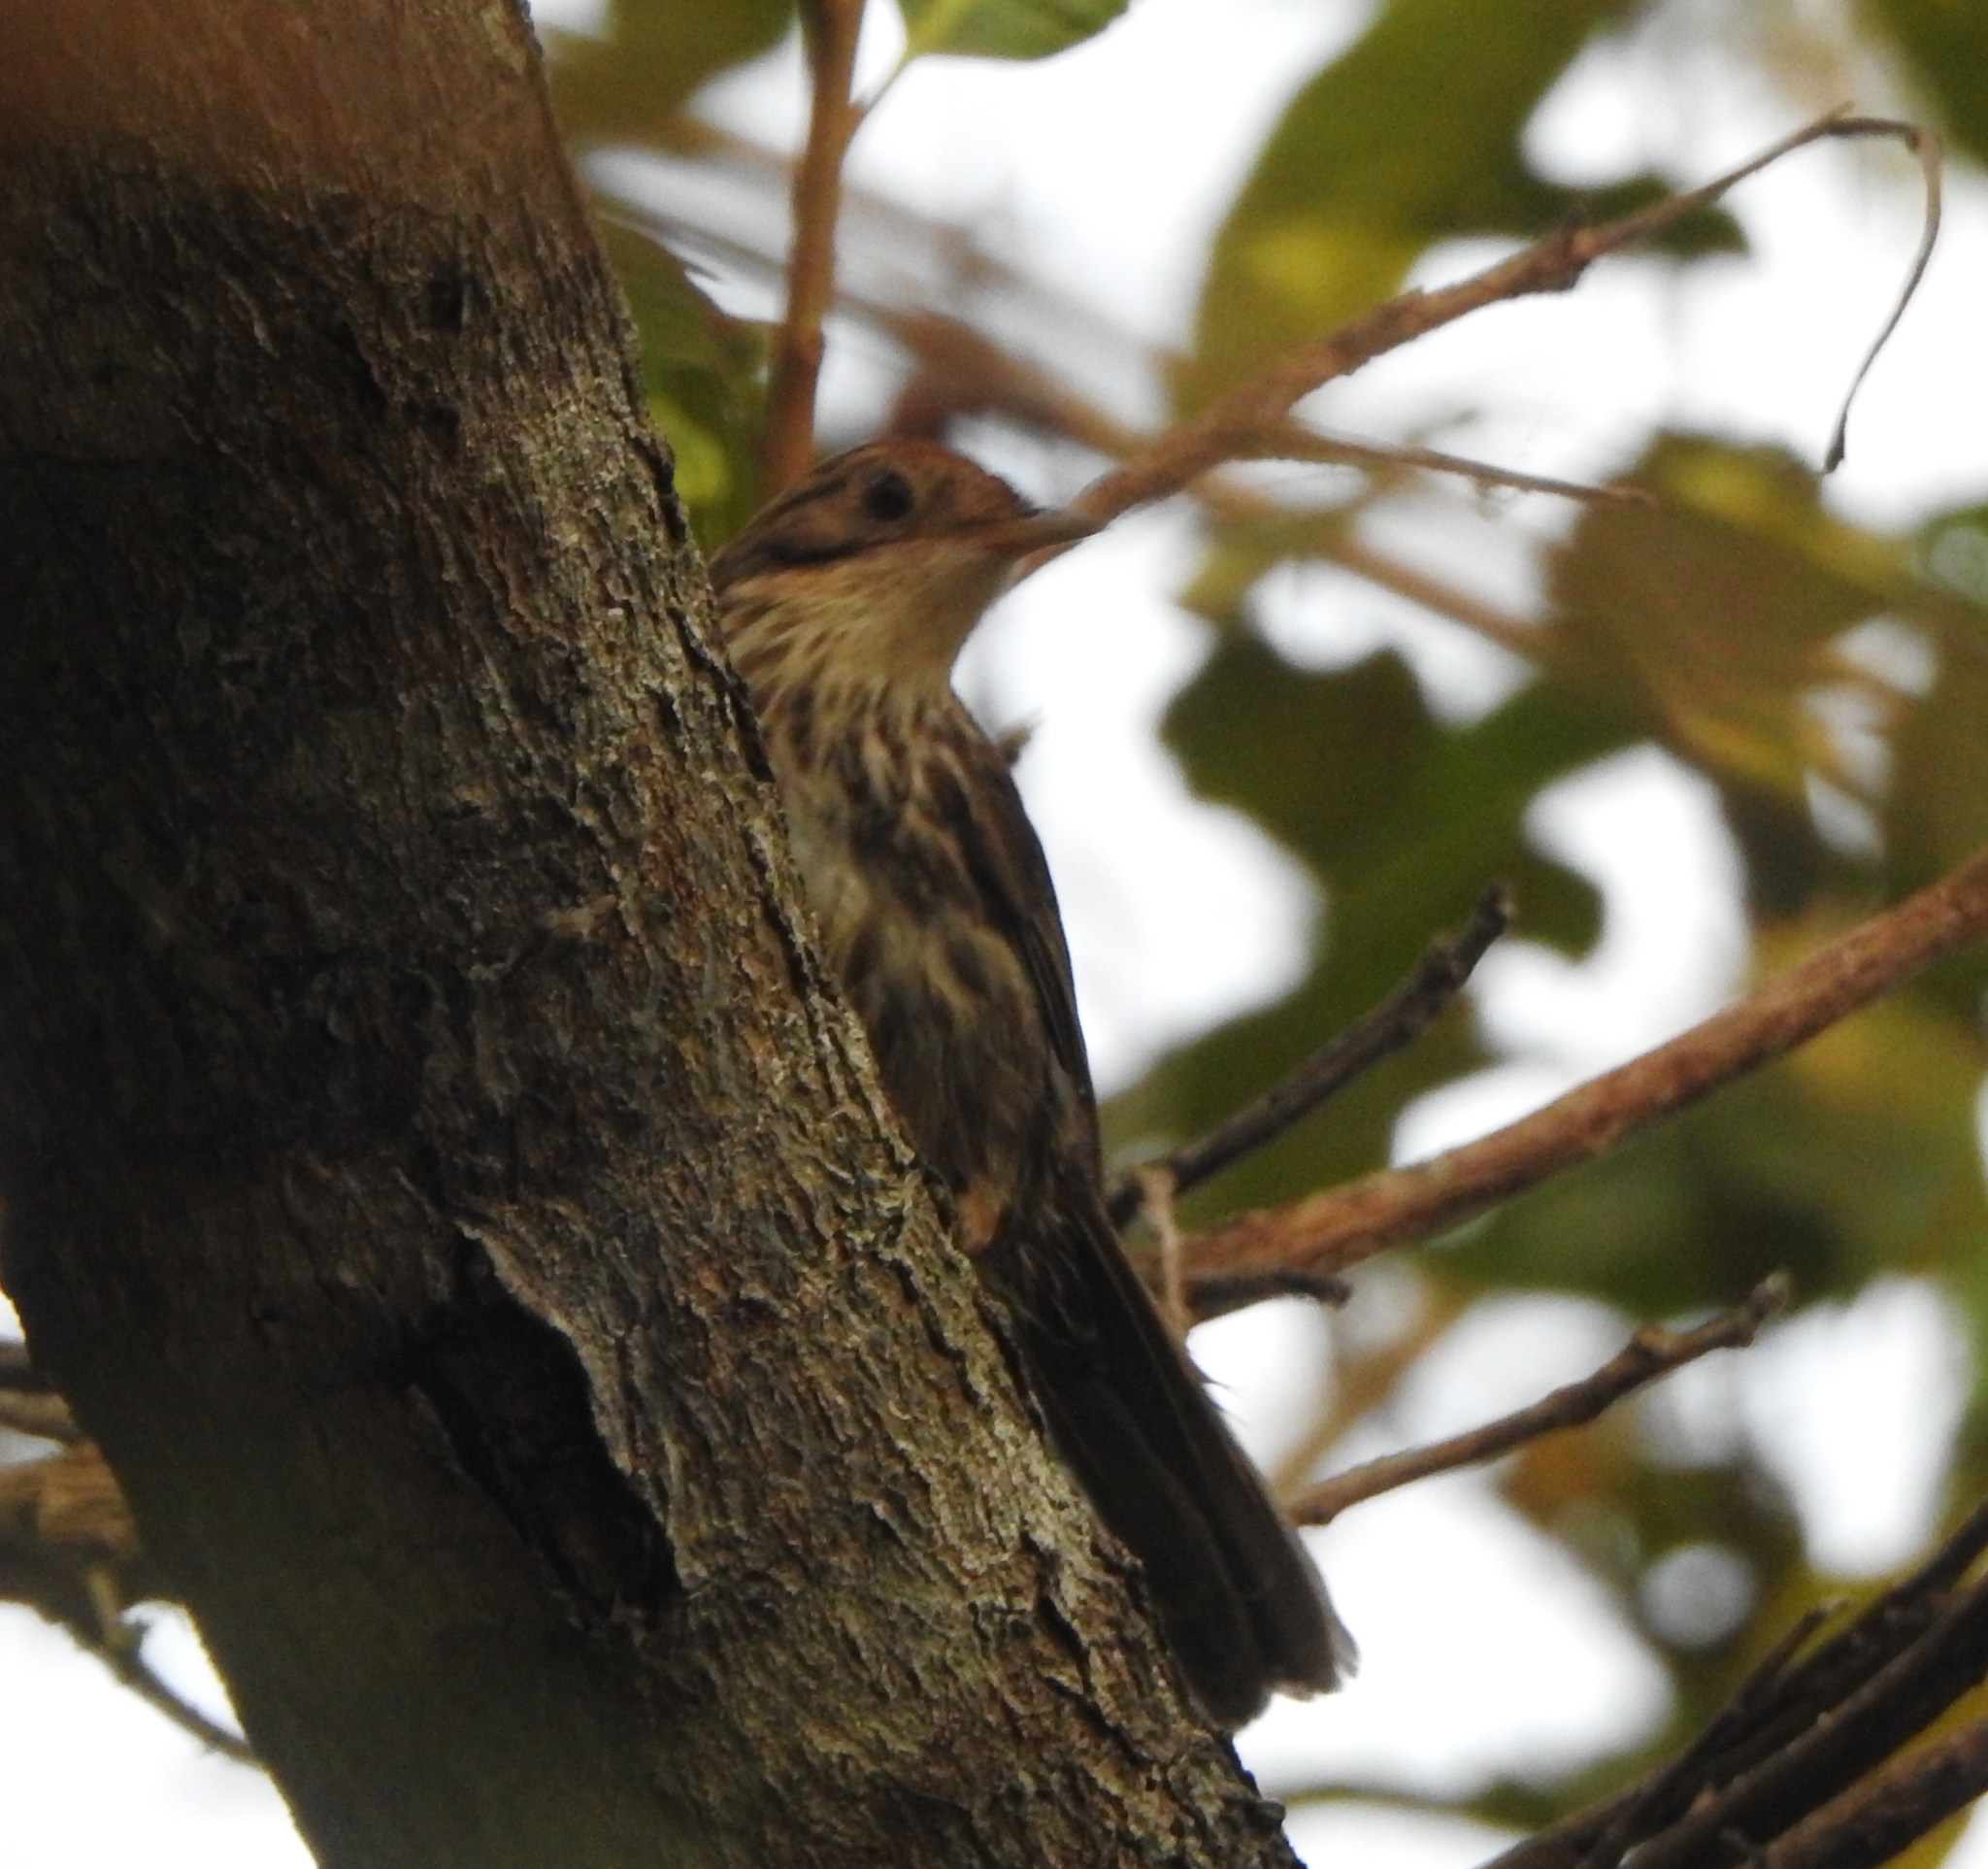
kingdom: Animalia
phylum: Chordata
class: Aves
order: Passeriformes
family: Pellorneidae
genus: Pellorneum
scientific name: Pellorneum ruficeps
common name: Puff-throated babbler
